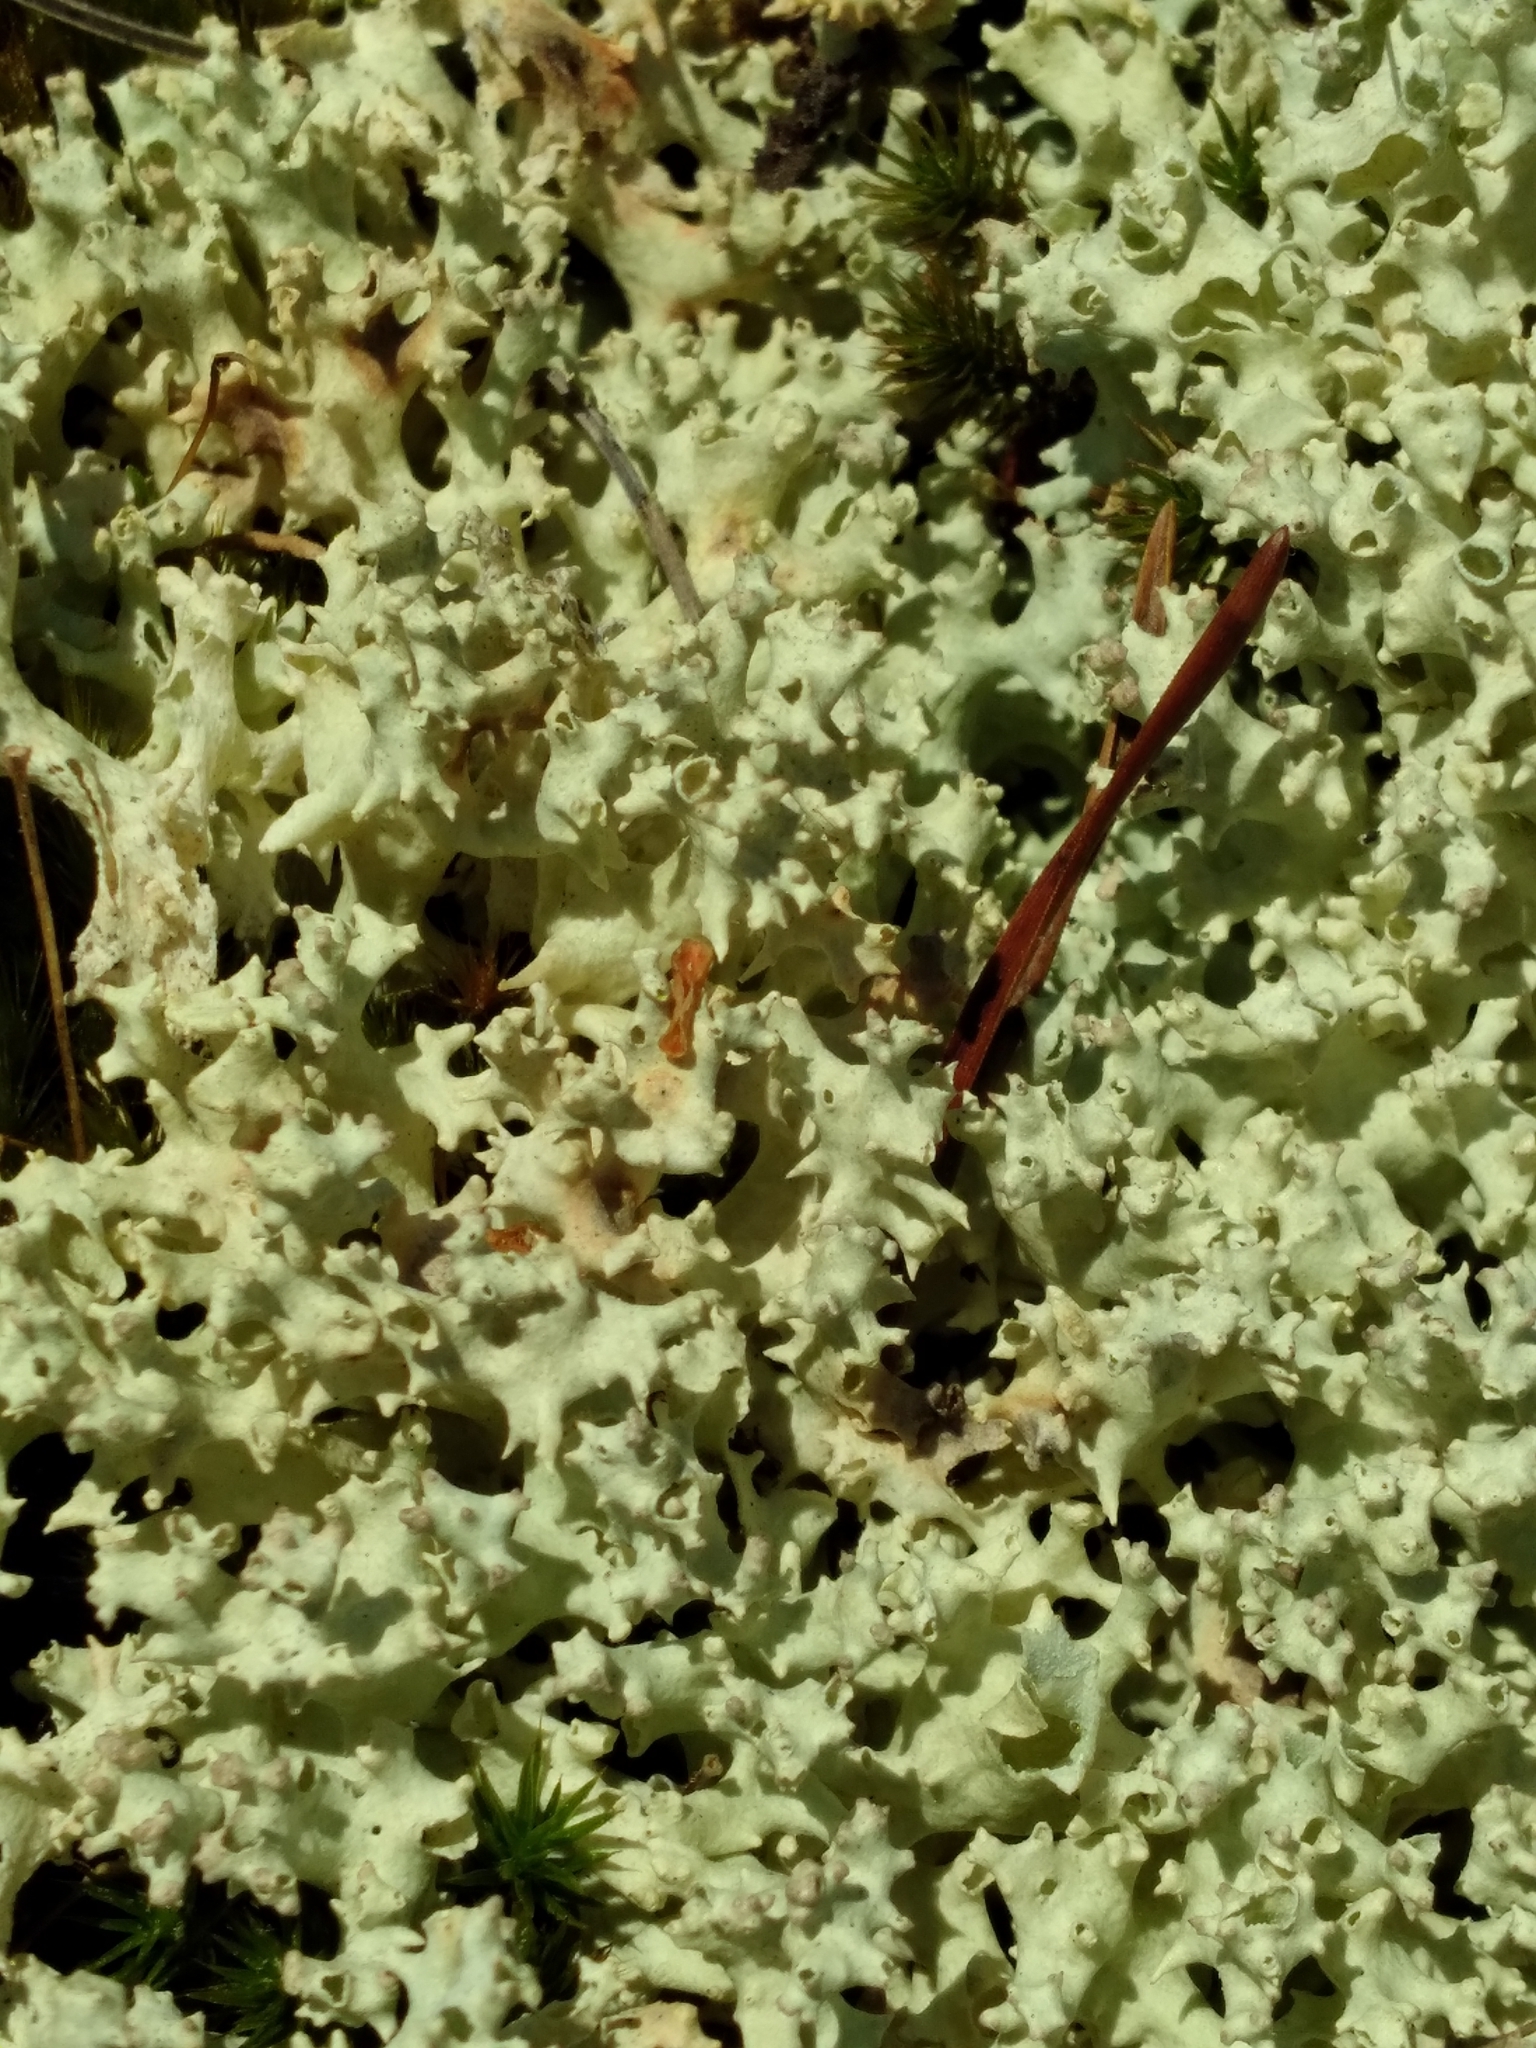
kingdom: Fungi
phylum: Ascomycota
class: Lecanoromycetes
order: Lecanorales
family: Cladoniaceae
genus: Cladonia
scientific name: Cladonia caroliniana
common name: Granite thorn
